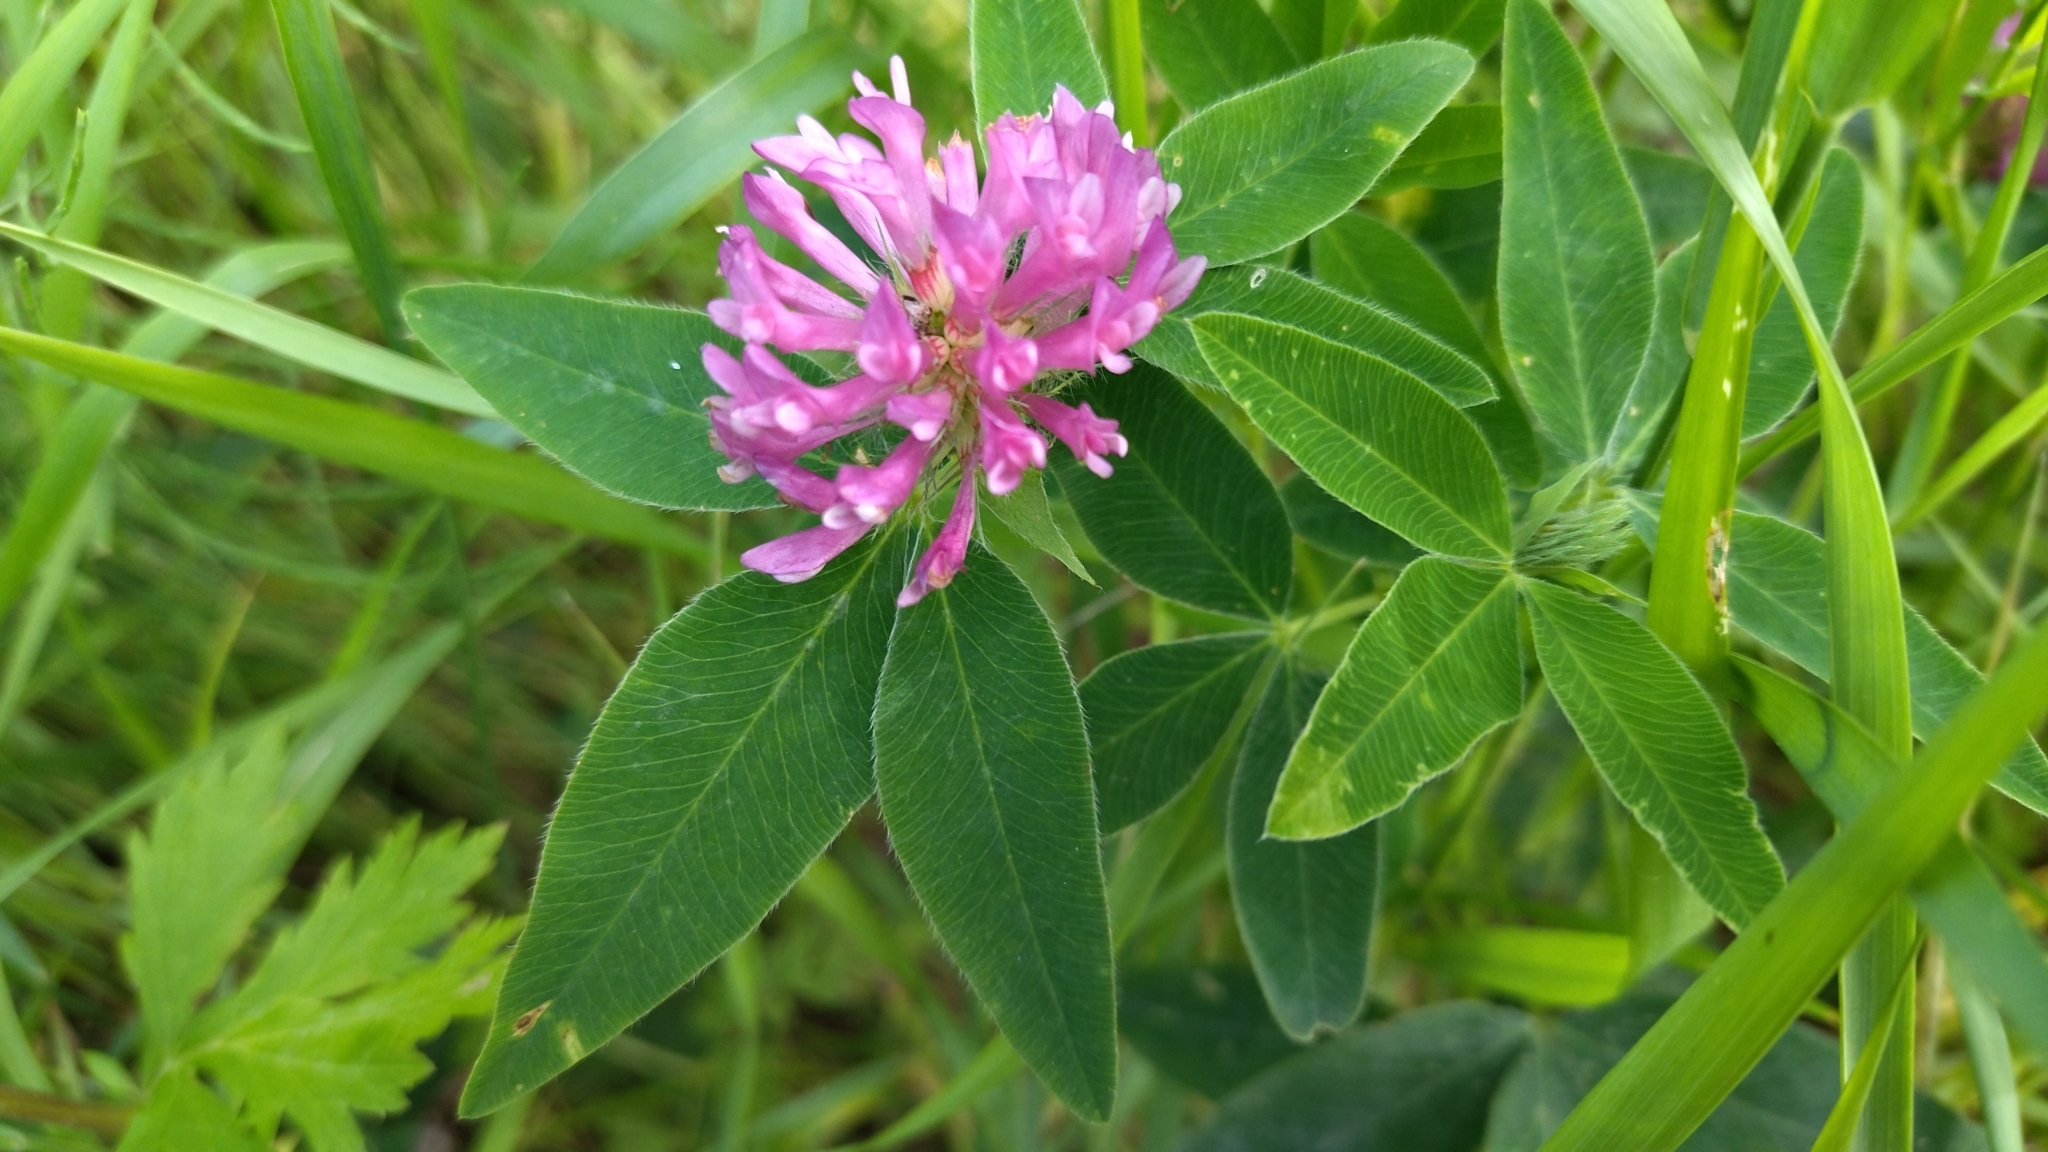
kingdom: Plantae
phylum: Tracheophyta
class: Magnoliopsida
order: Fabales
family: Fabaceae
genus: Trifolium
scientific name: Trifolium medium
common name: Zigzag clover
